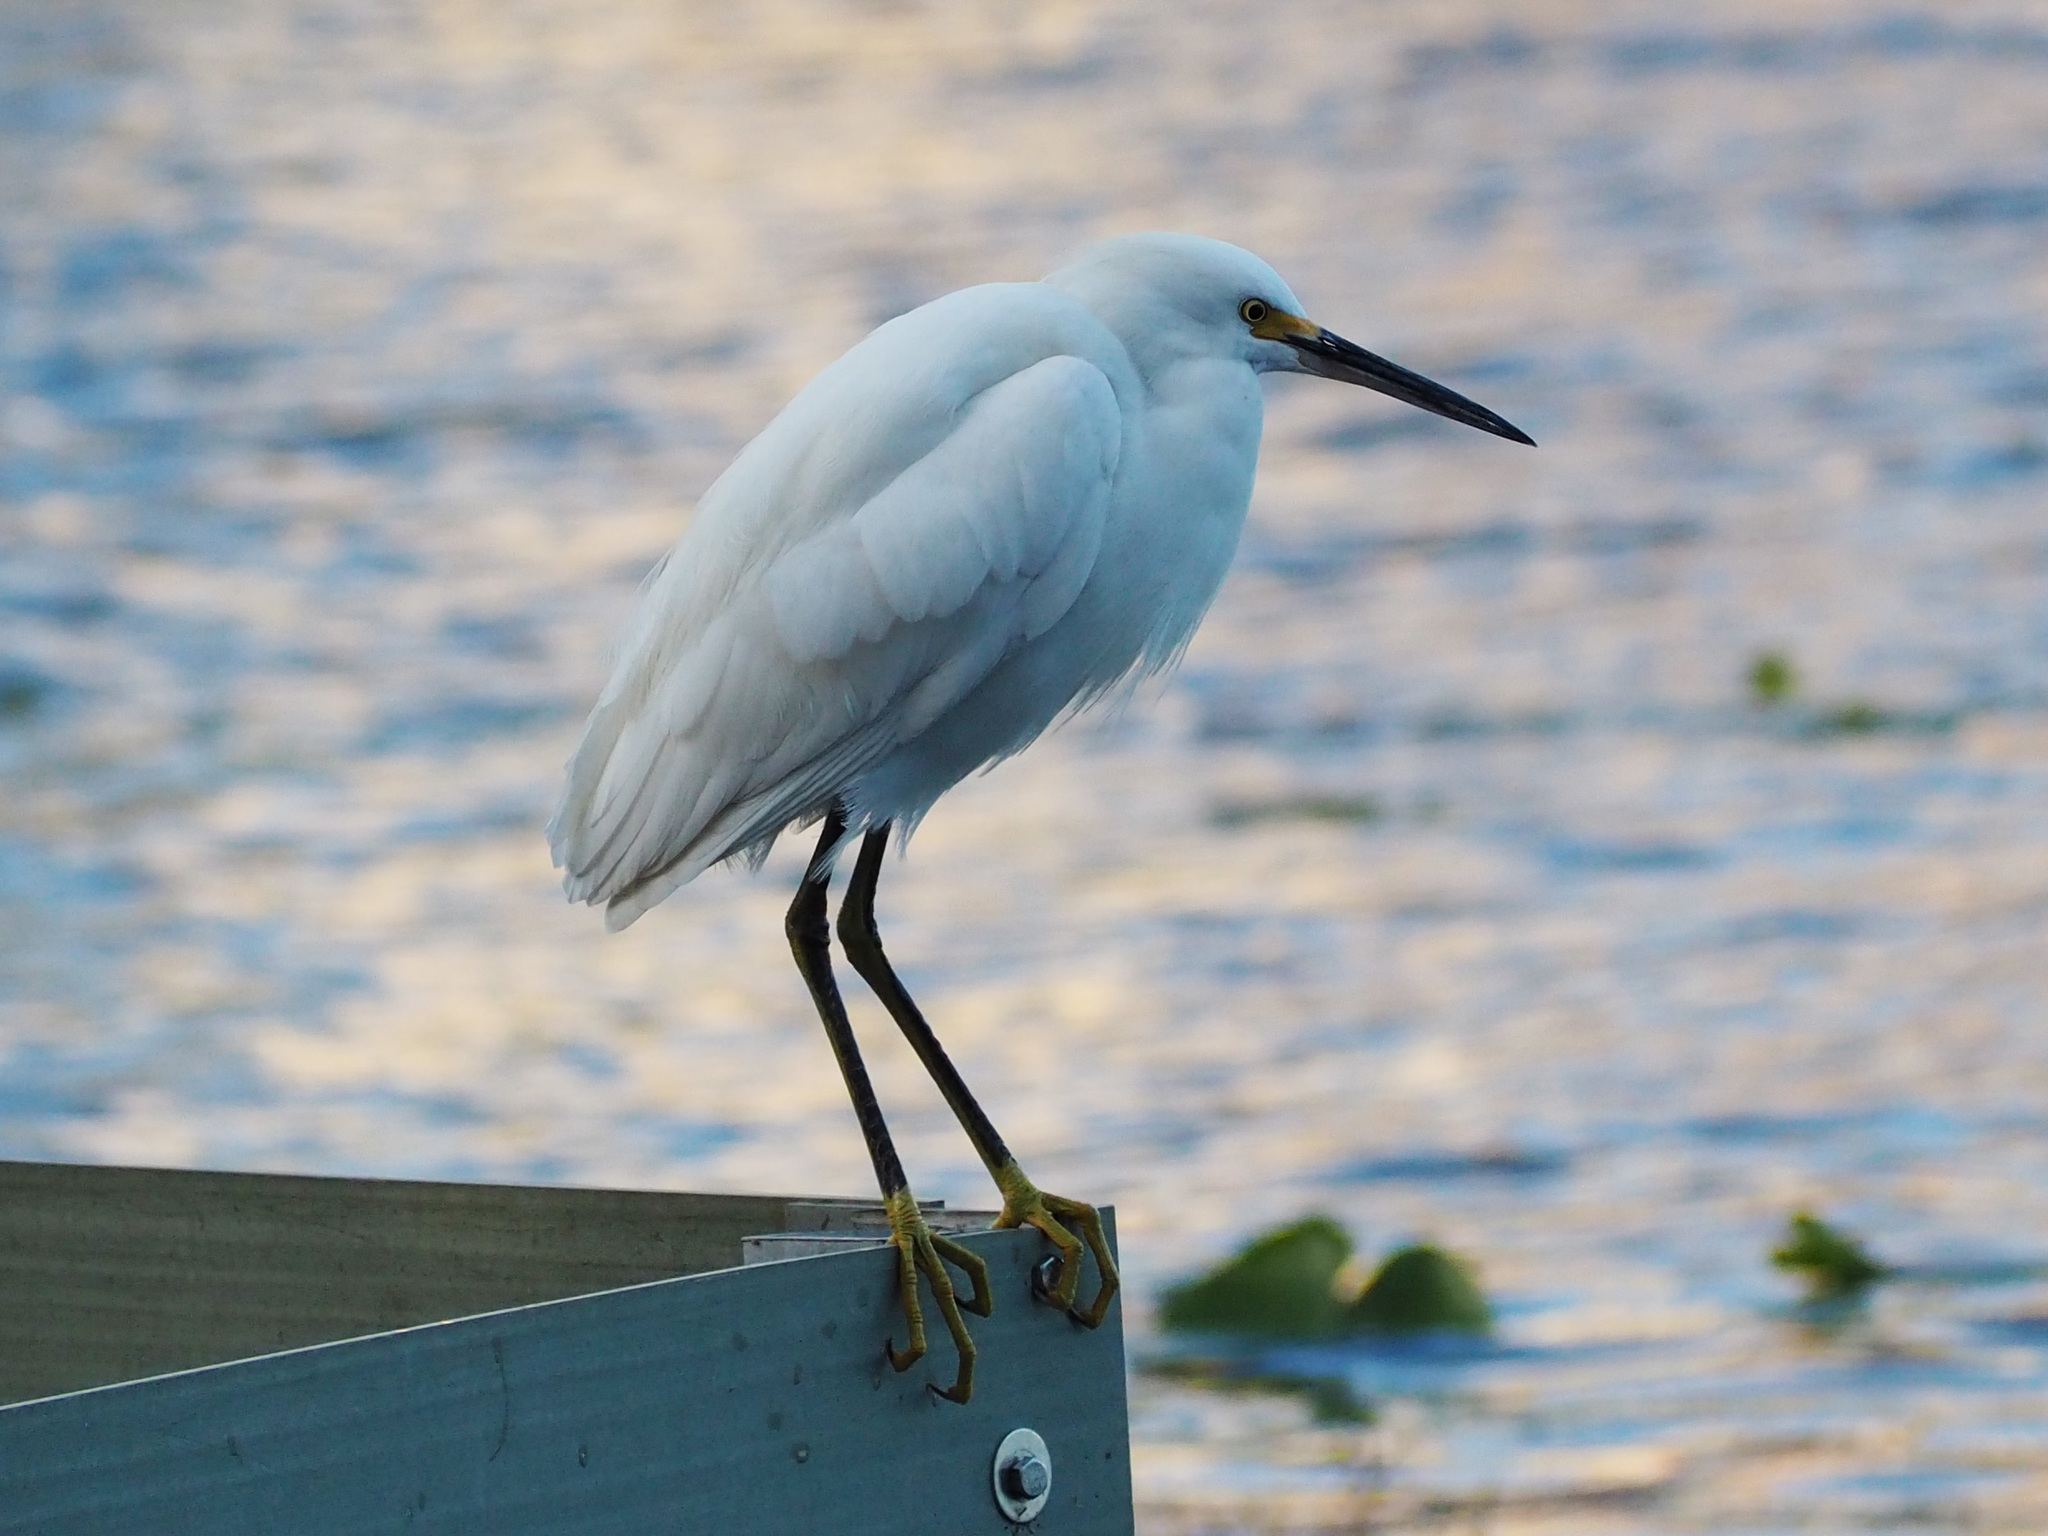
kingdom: Animalia
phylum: Chordata
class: Aves
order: Pelecaniformes
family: Ardeidae
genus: Egretta
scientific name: Egretta thula
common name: Snowy egret
